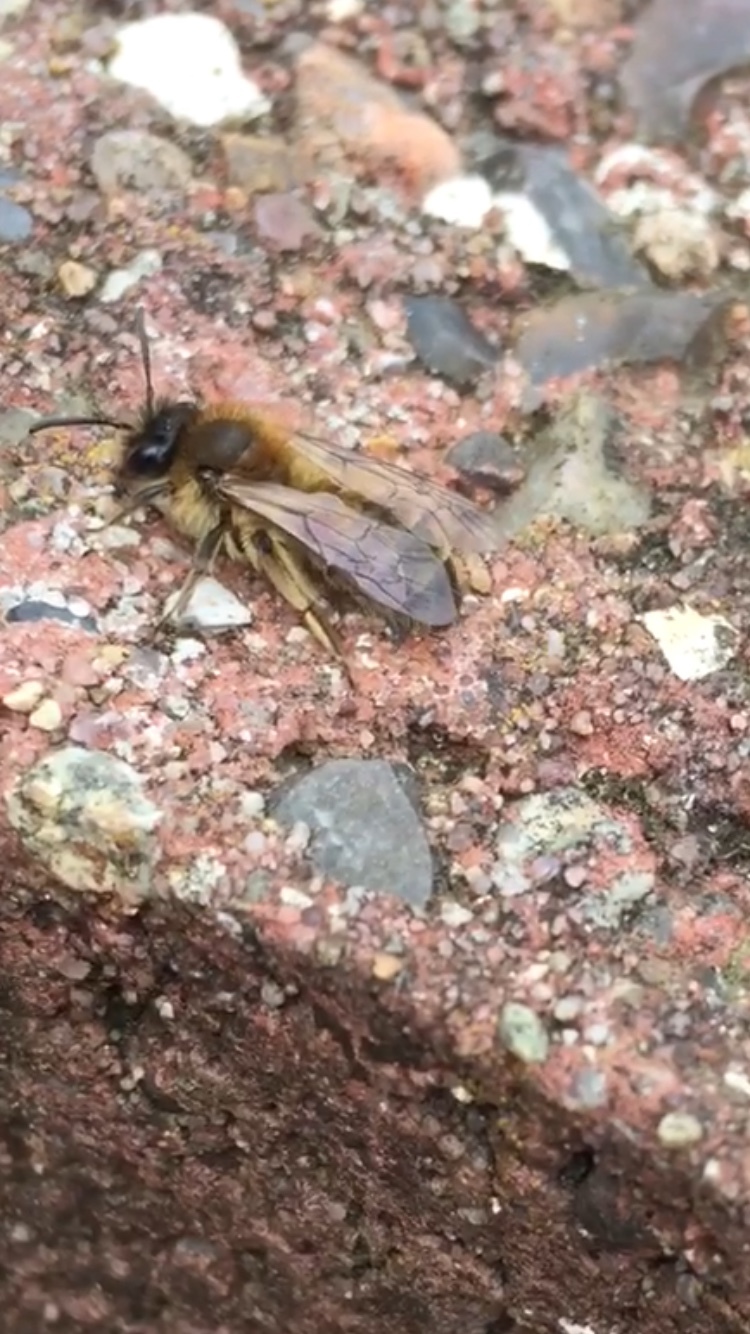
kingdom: Animalia
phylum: Arthropoda
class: Insecta
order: Hymenoptera
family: Andrenidae
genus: Andrena
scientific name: Andrena nigroaenea
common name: Buffish mining bee
